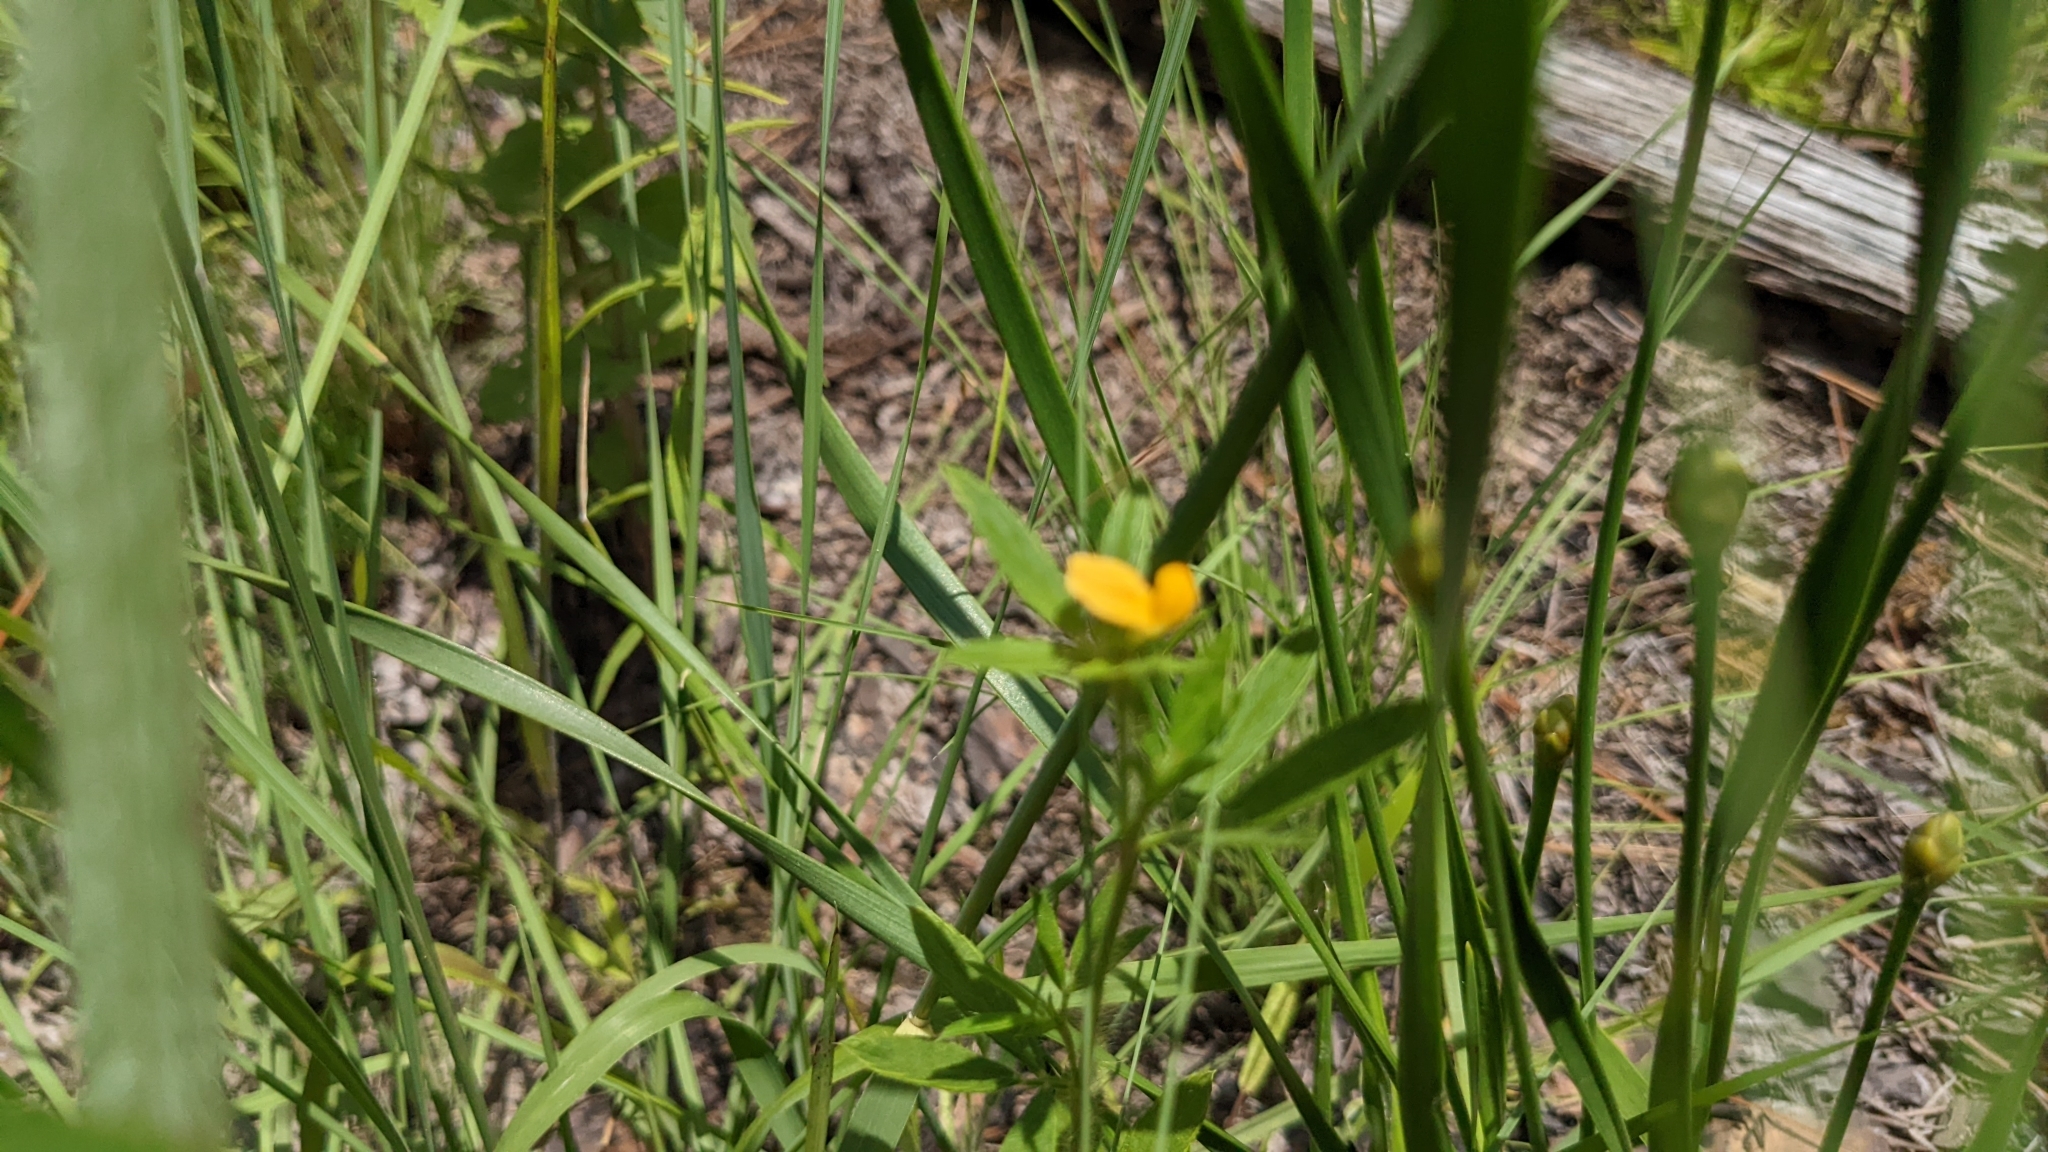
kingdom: Plantae
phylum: Tracheophyta
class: Magnoliopsida
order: Fabales
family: Fabaceae
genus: Stylosanthes
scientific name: Stylosanthes biflora
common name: Two-flower pencil-flower
